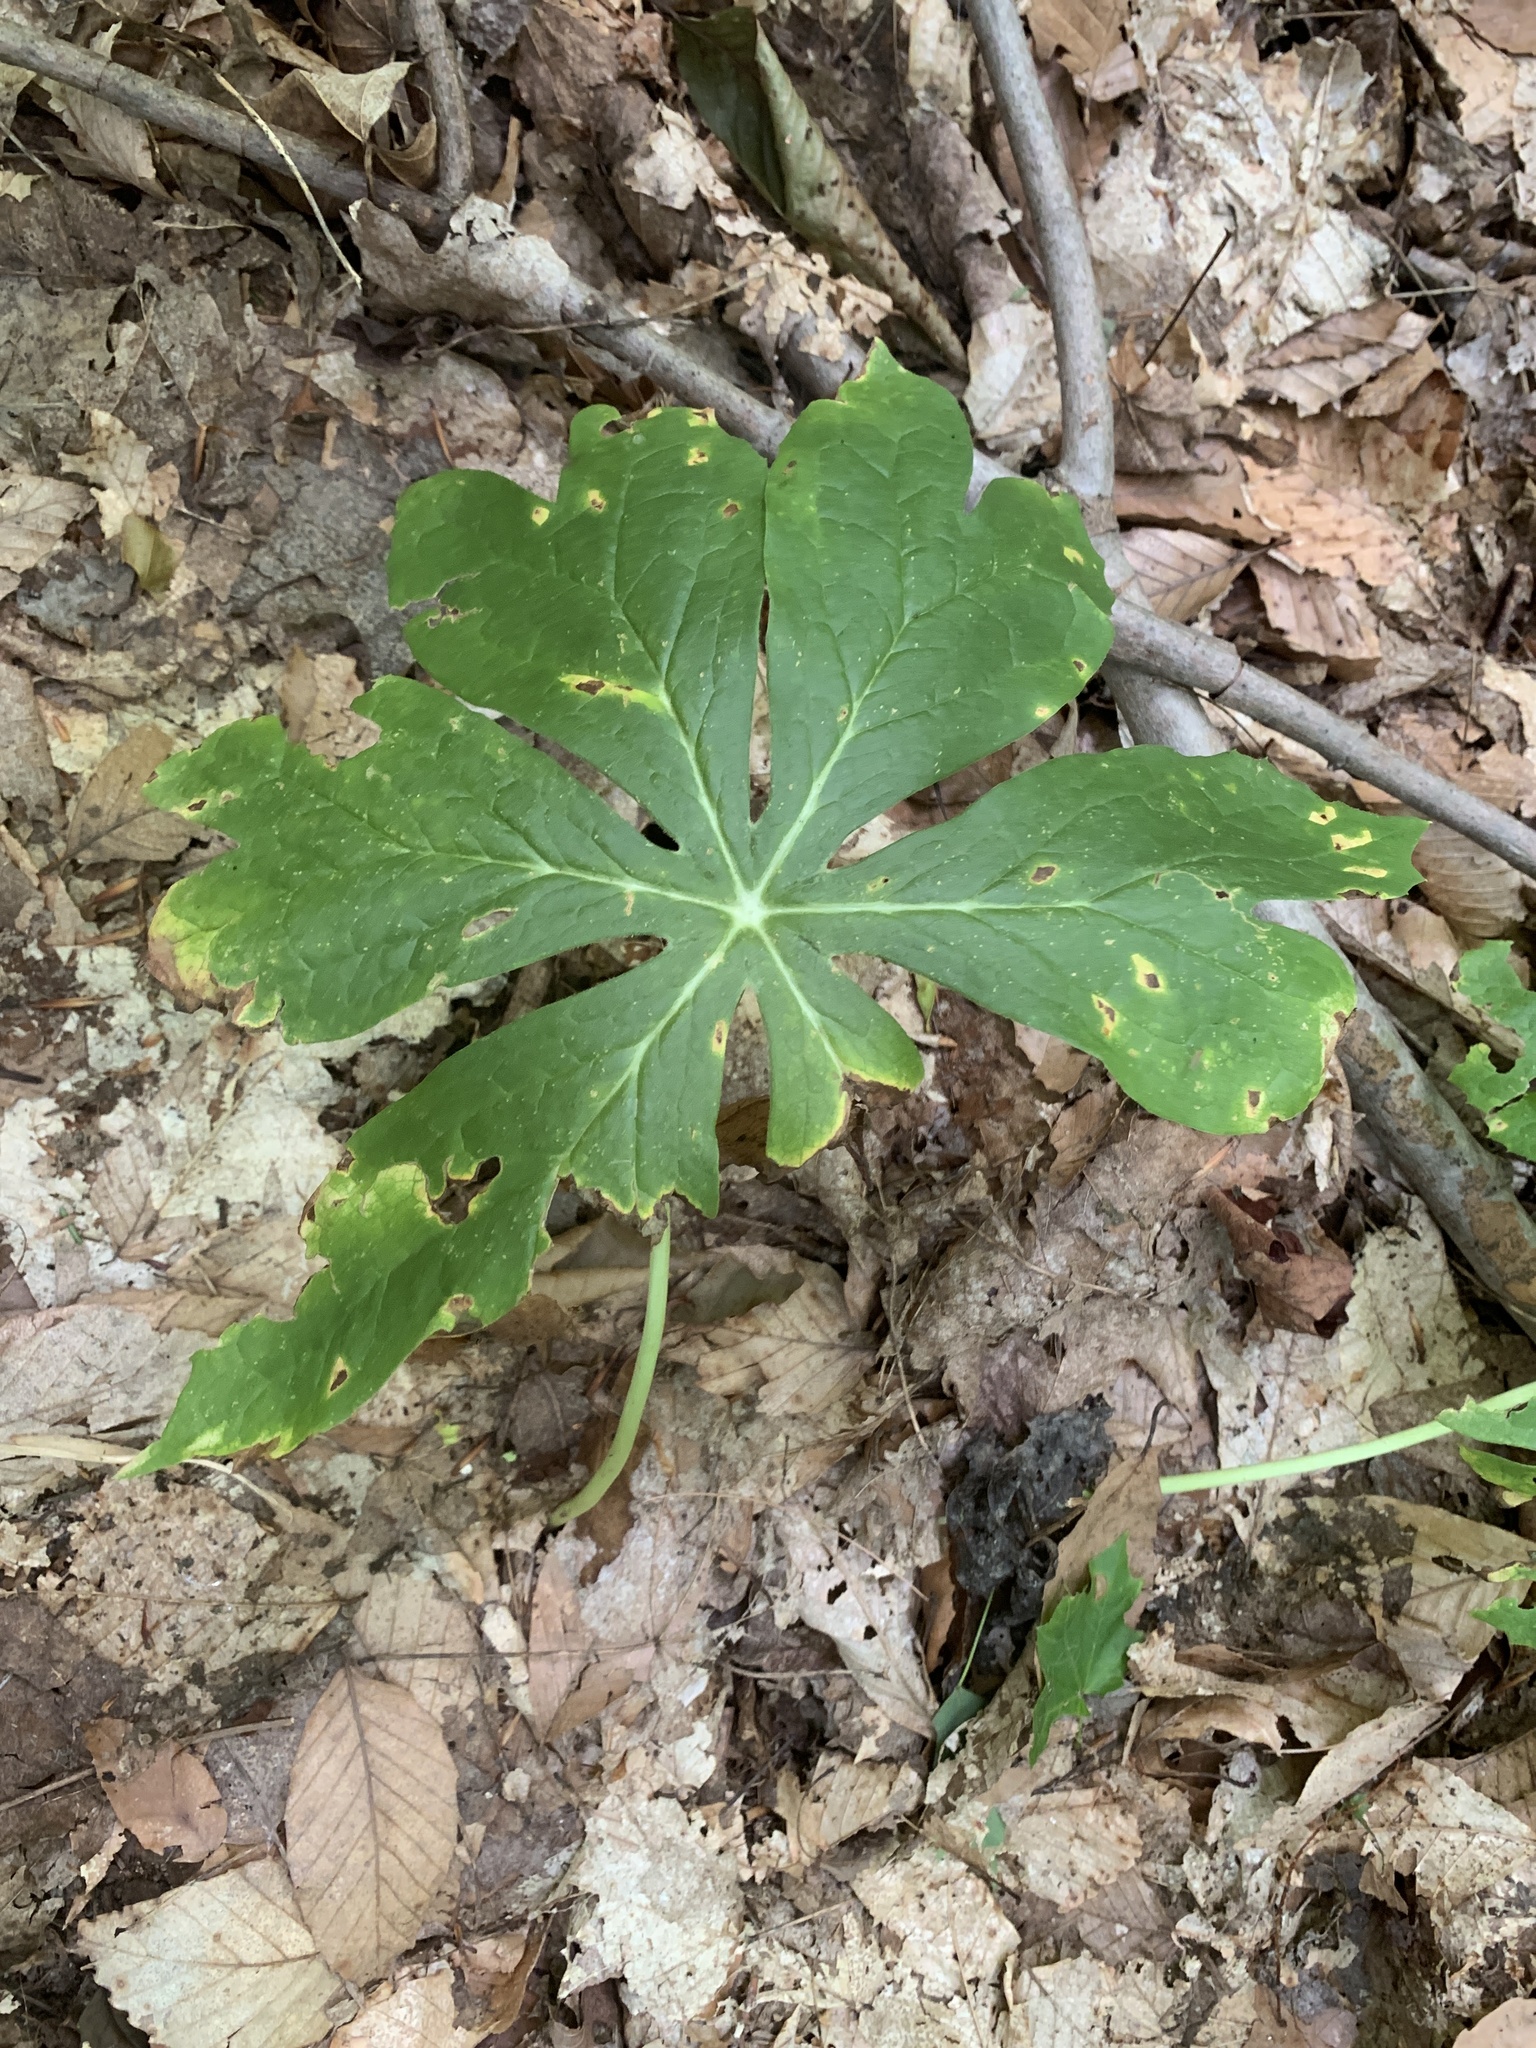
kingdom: Plantae
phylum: Tracheophyta
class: Magnoliopsida
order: Ranunculales
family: Berberidaceae
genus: Podophyllum
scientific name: Podophyllum peltatum
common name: Wild mandrake
